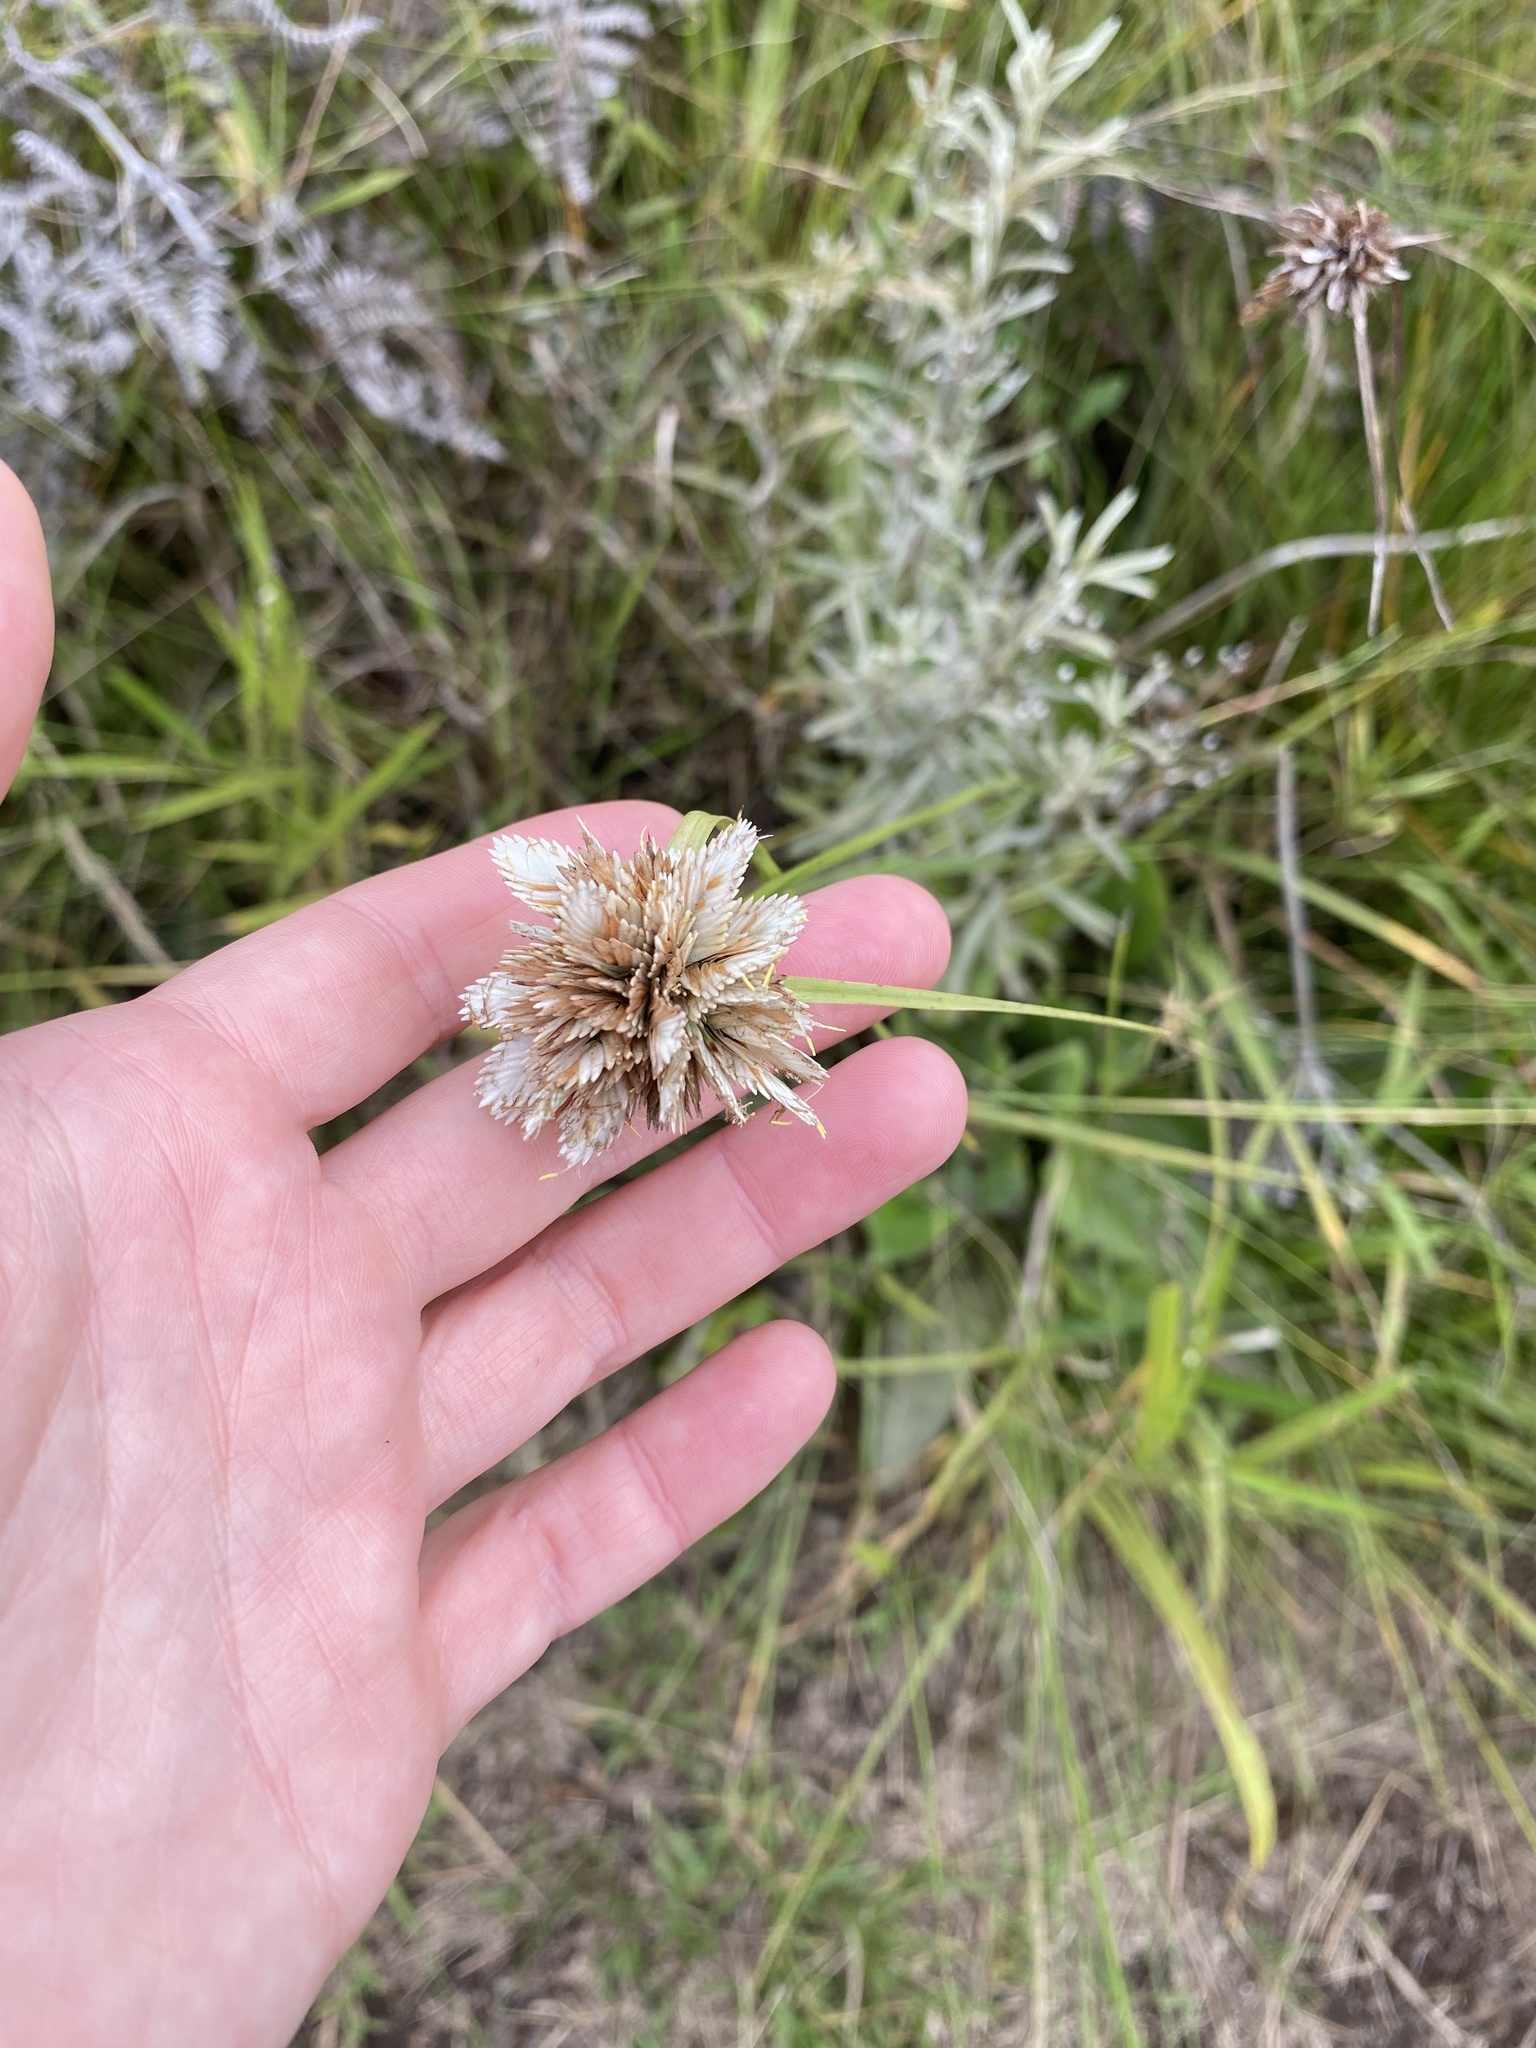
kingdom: Plantae
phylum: Tracheophyta
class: Liliopsida
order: Poales
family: Cyperaceae
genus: Cyperus
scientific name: Cyperus niveus
